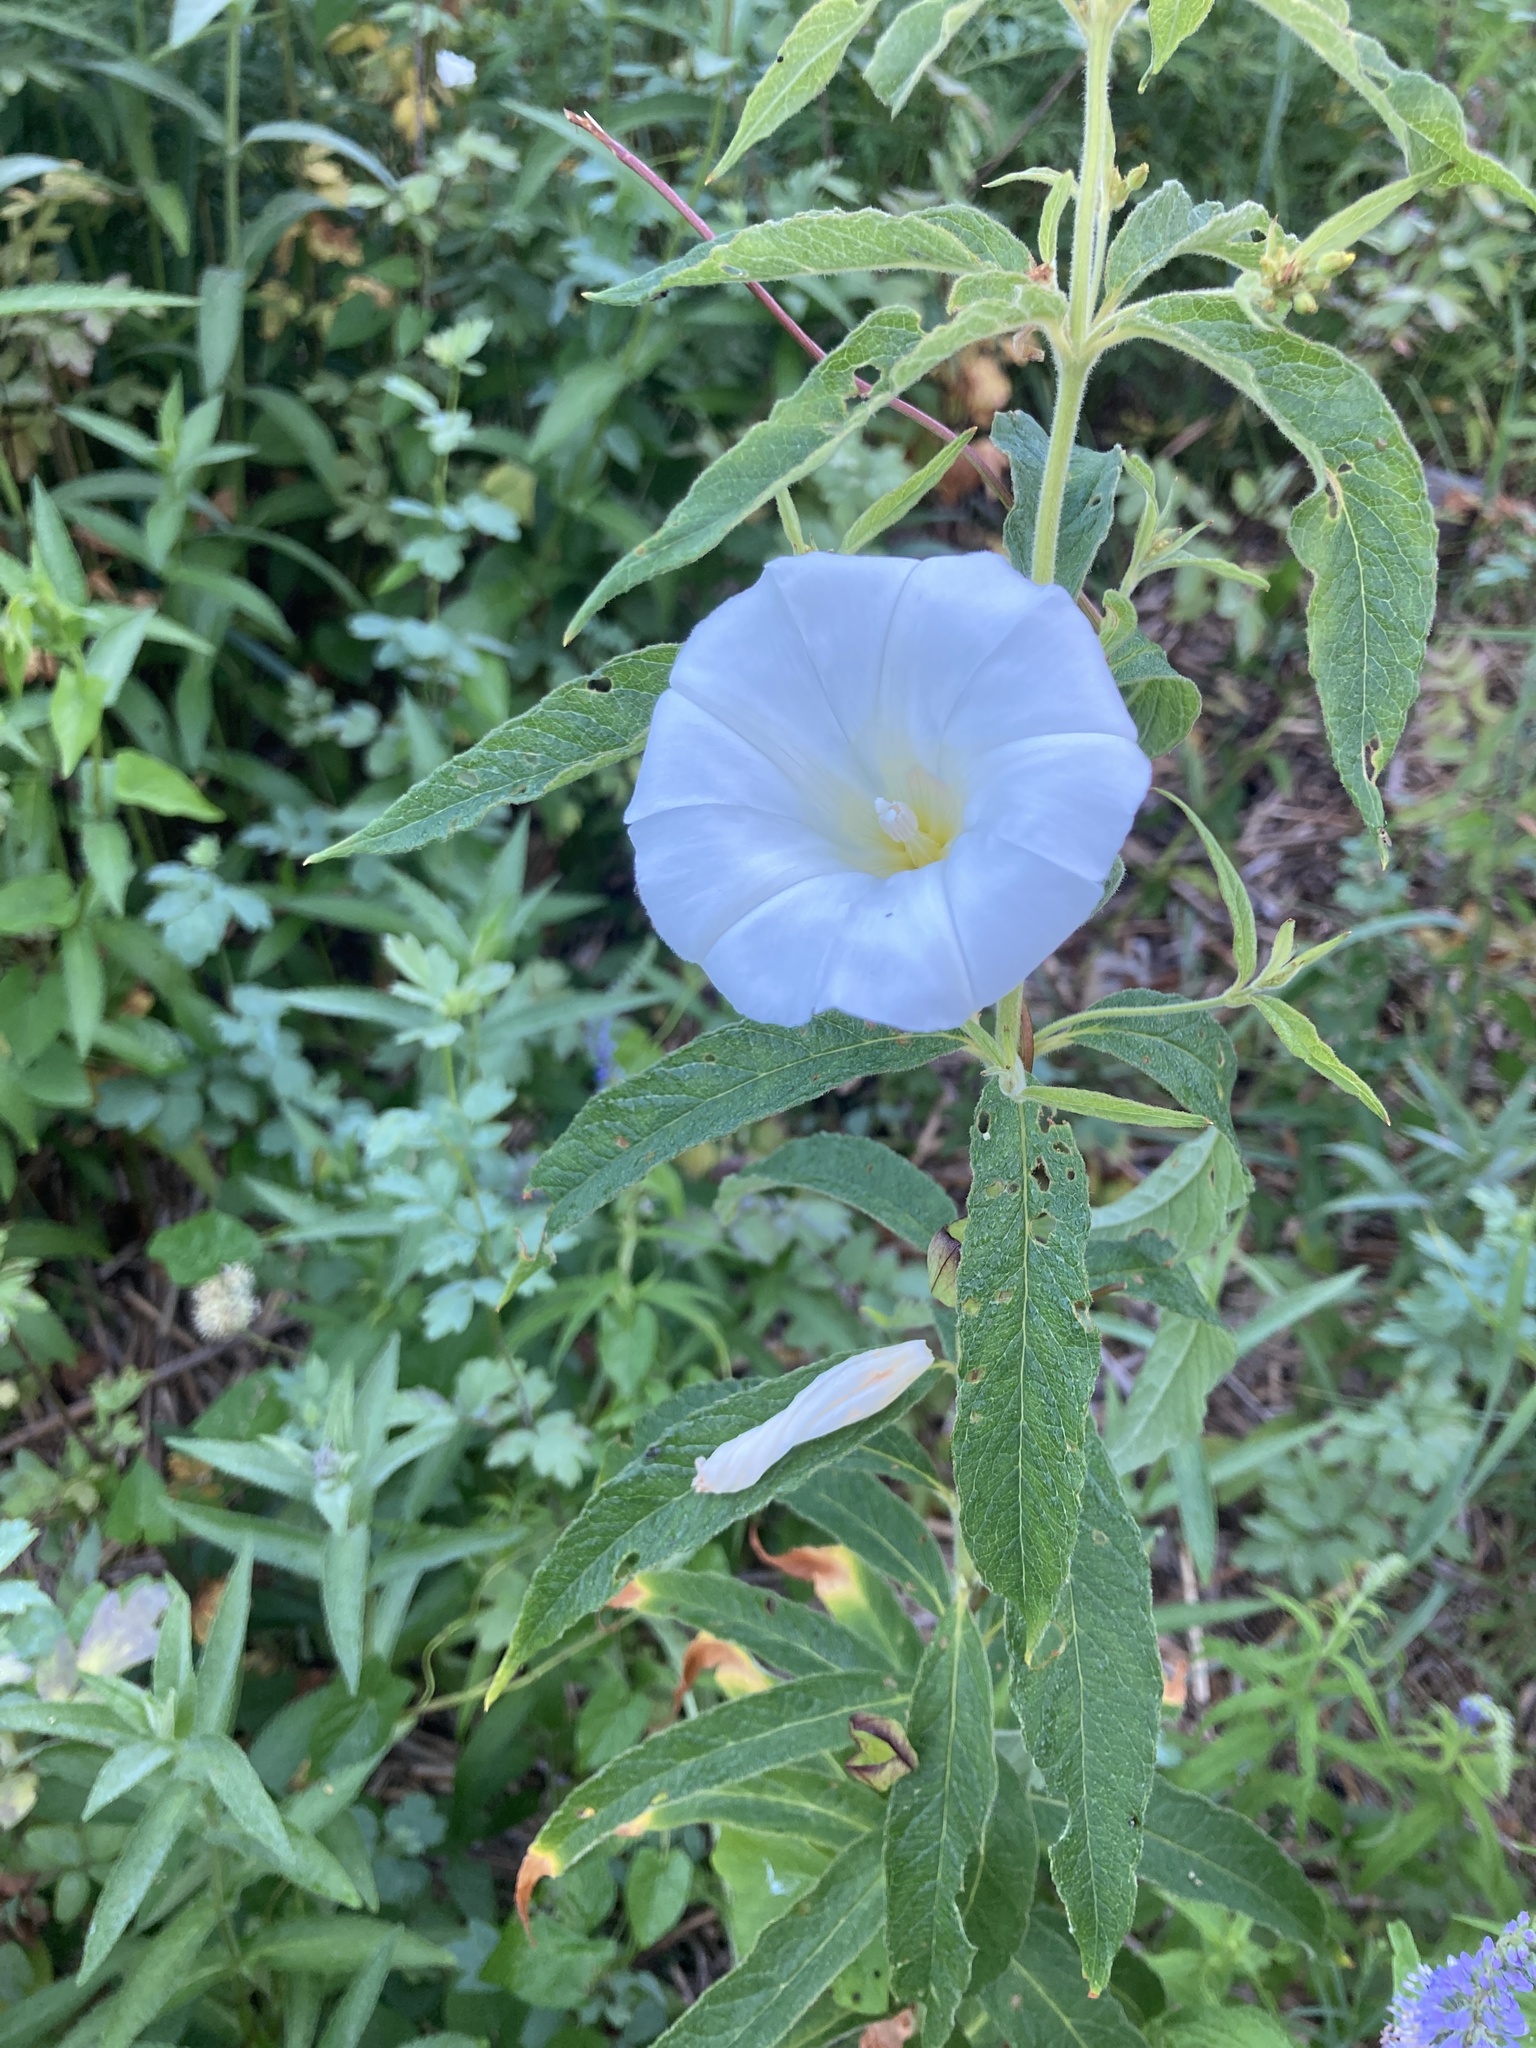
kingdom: Plantae
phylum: Tracheophyta
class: Magnoliopsida
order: Solanales
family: Convolvulaceae
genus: Calystegia
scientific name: Calystegia sepium
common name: Hedge bindweed
